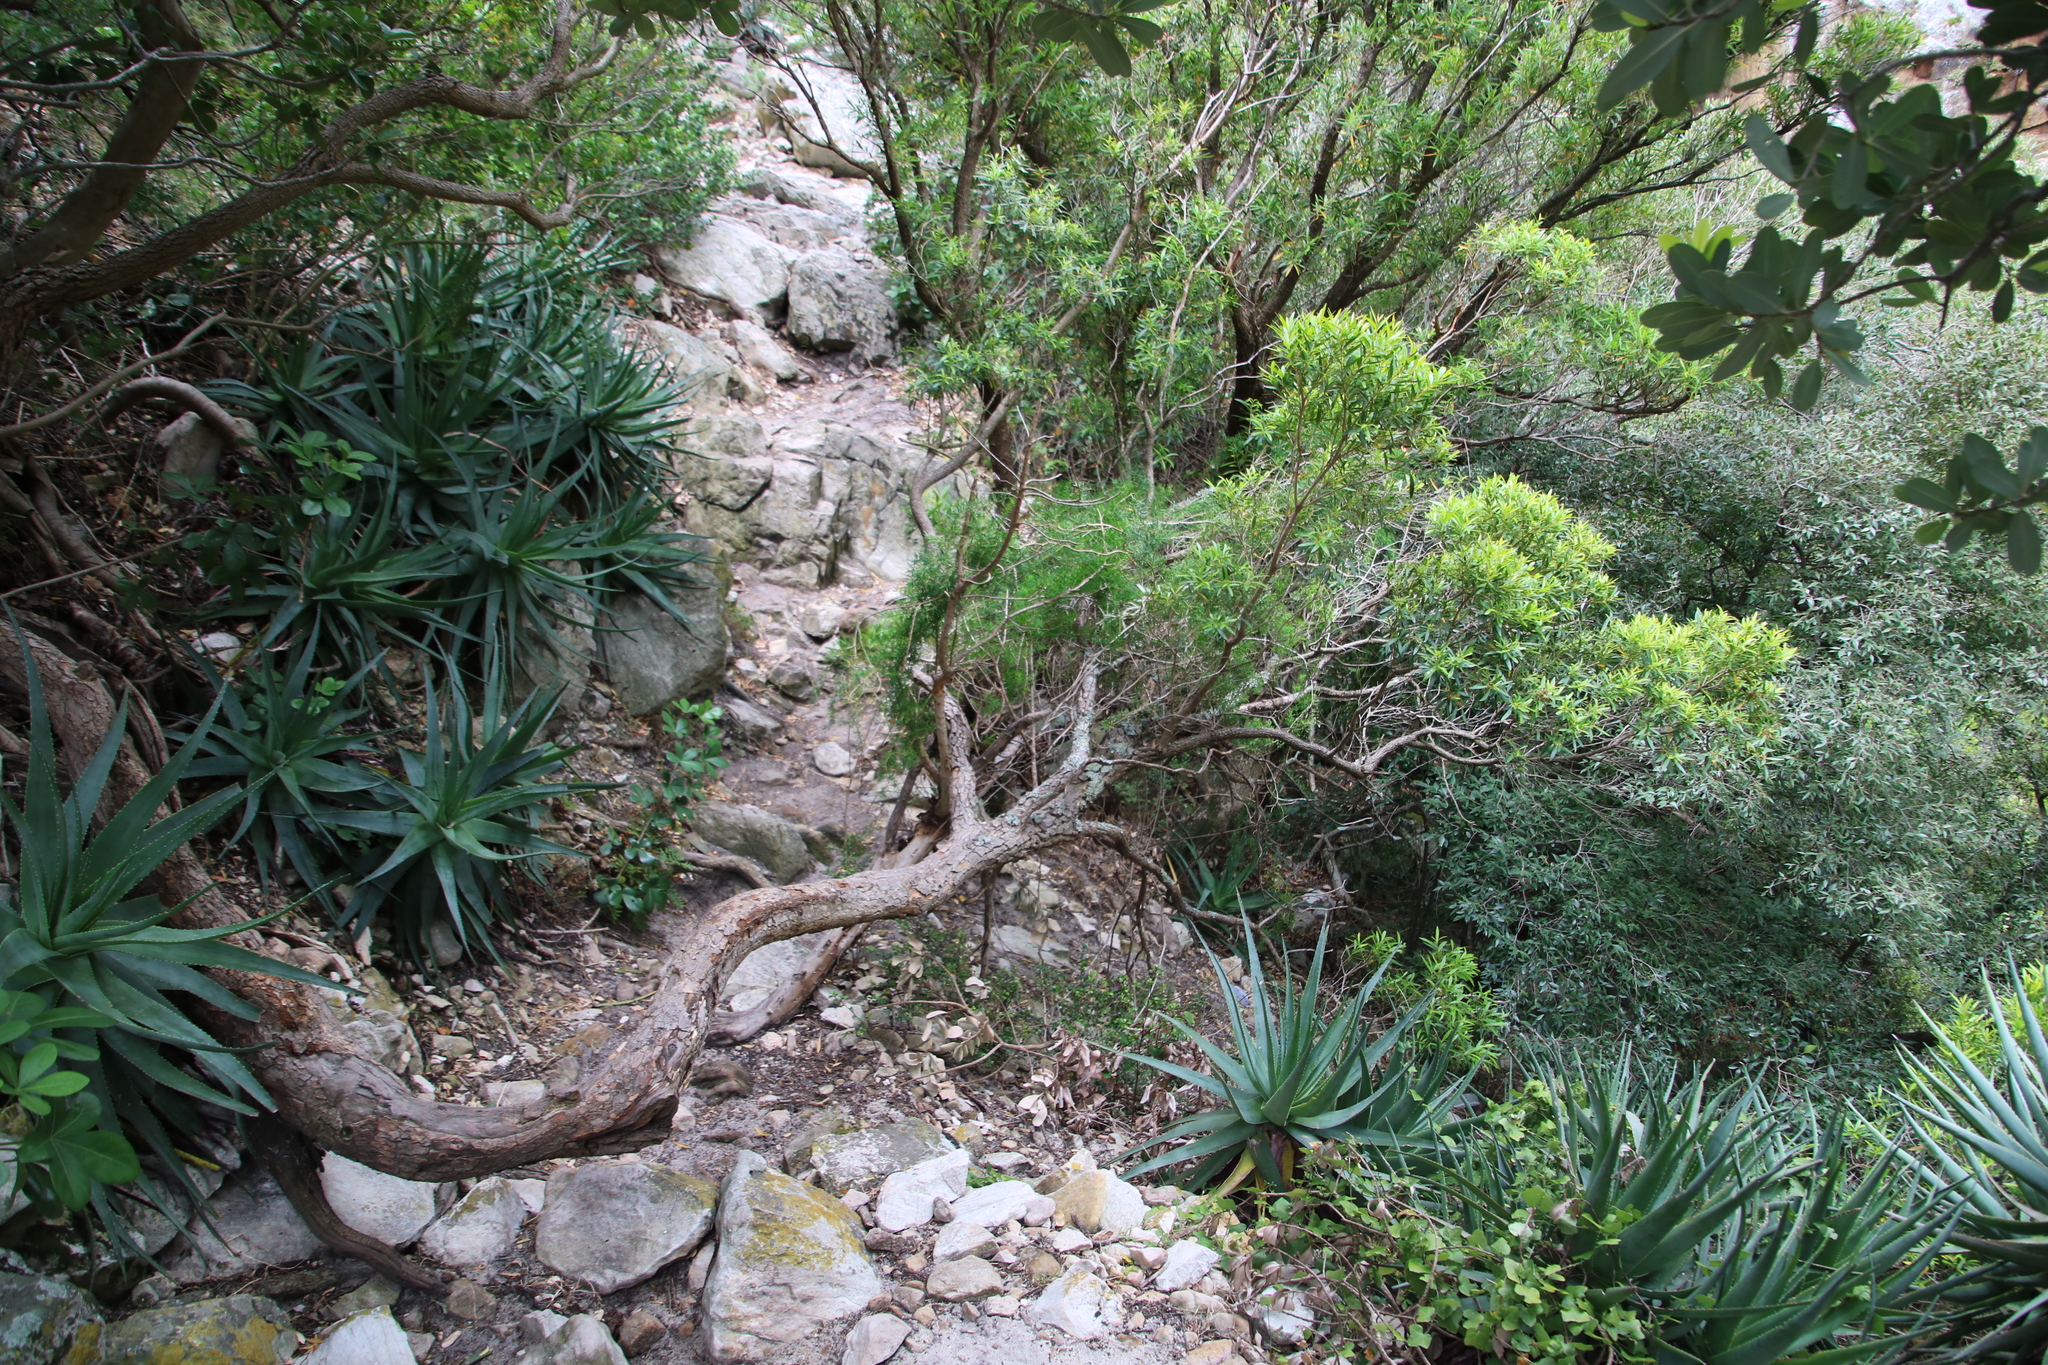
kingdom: Plantae
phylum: Tracheophyta
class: Liliopsida
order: Asparagales
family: Asparagaceae
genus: Asparagus
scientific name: Asparagus aethiopicus
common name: Sprenger's asparagus fern
